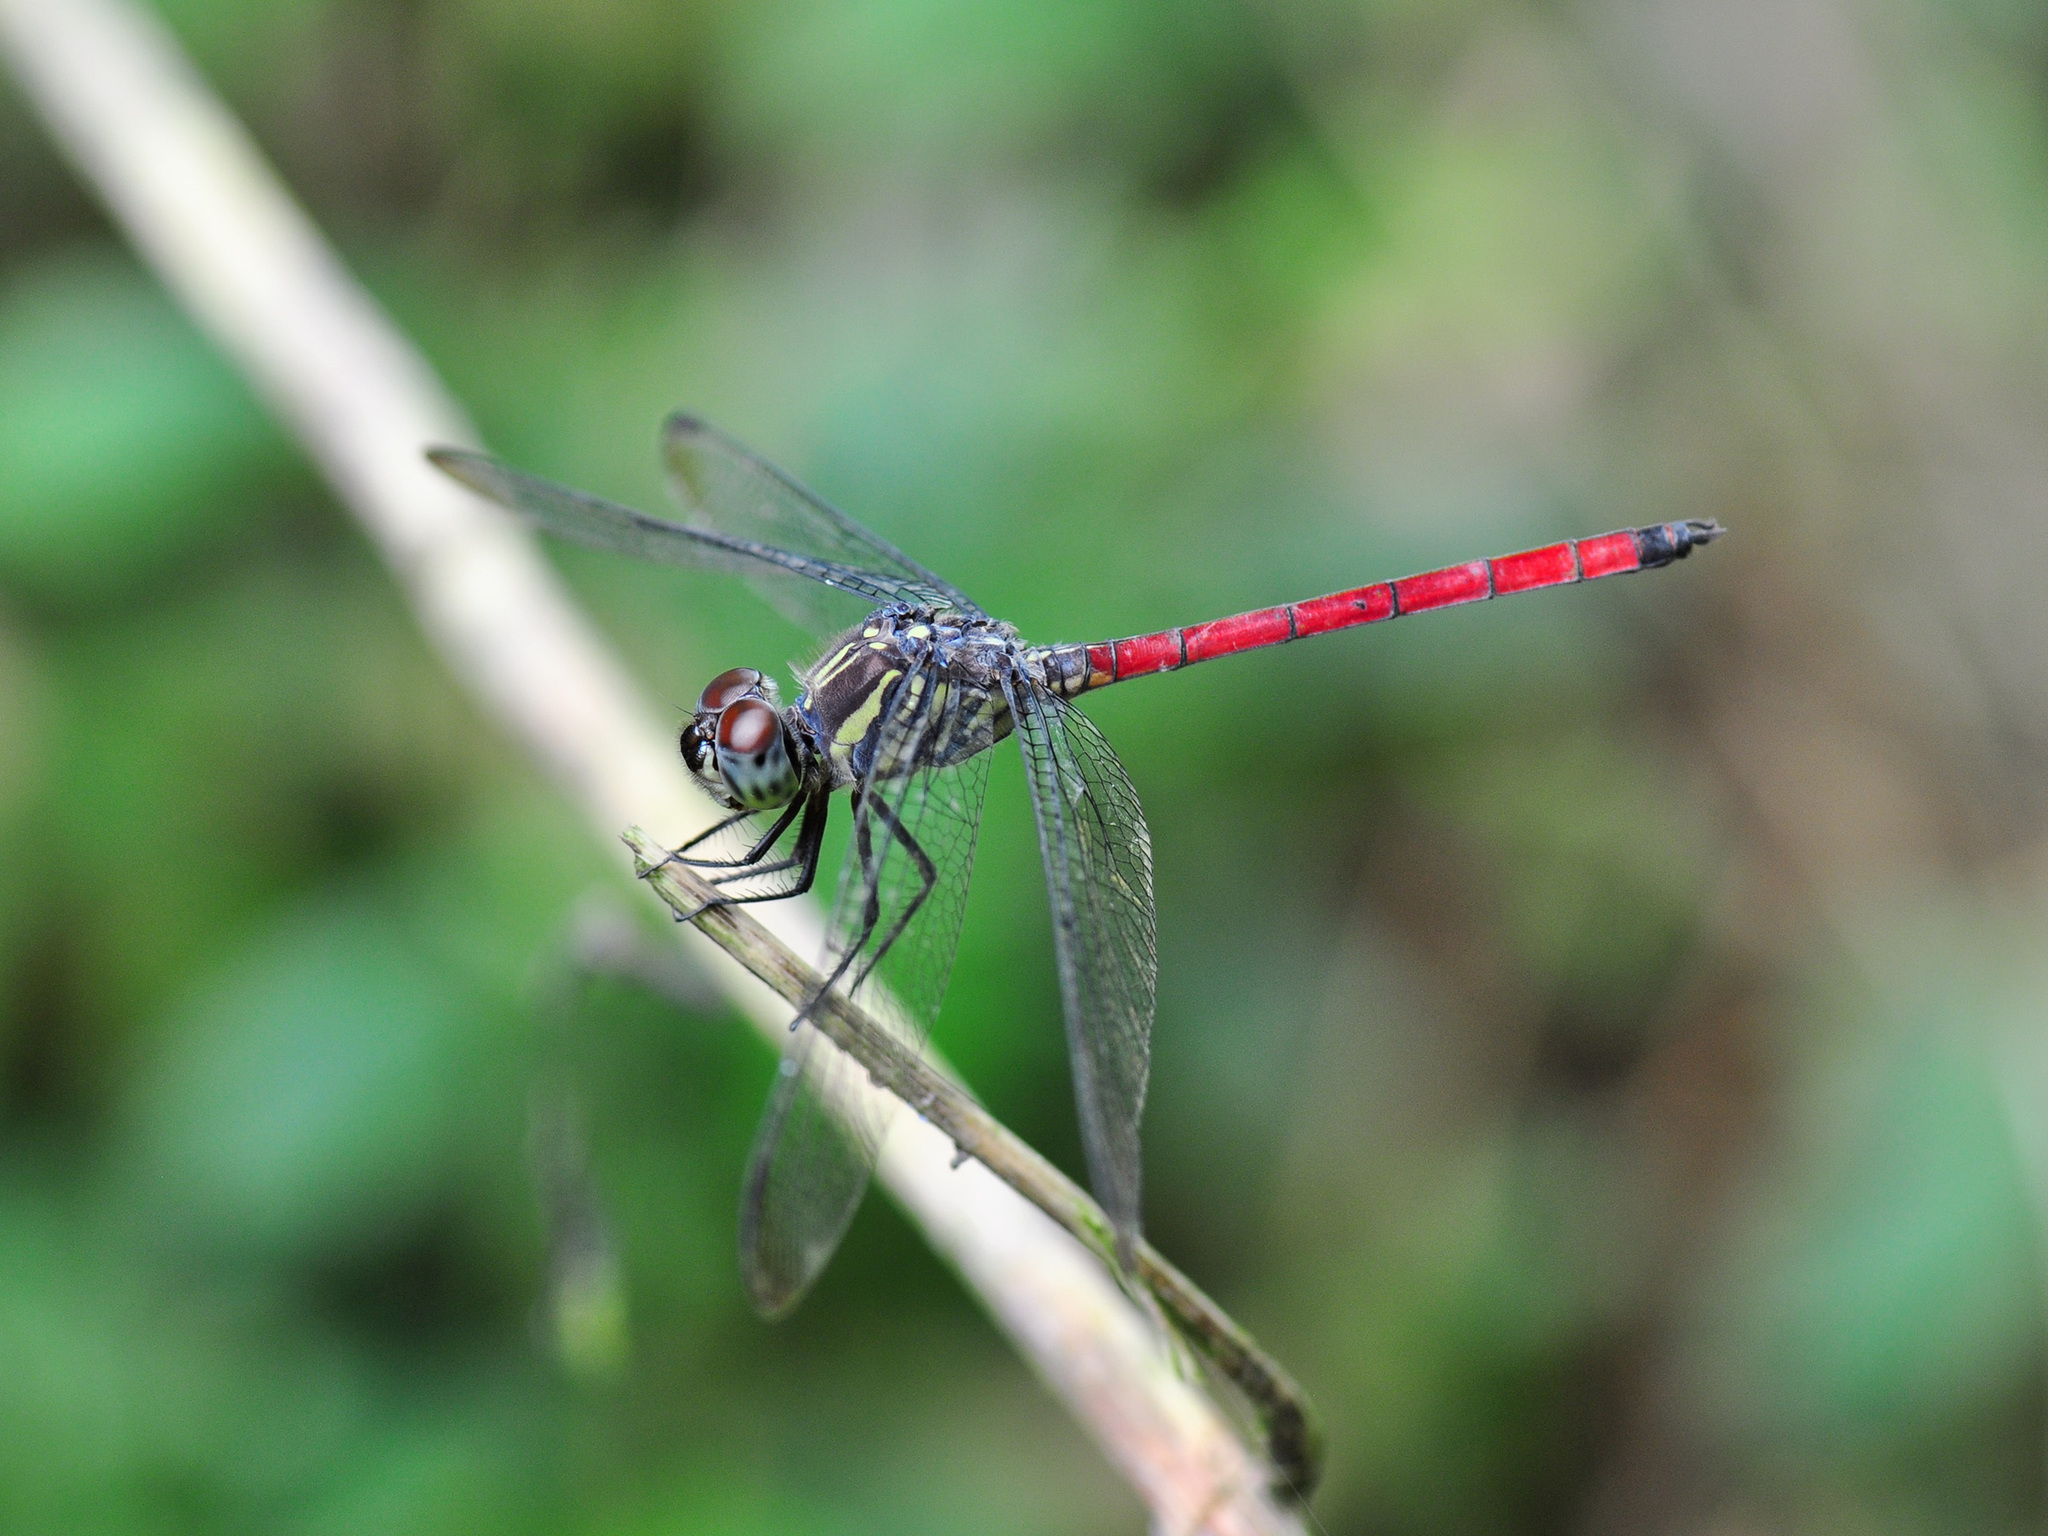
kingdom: Animalia
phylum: Arthropoda
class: Insecta
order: Odonata
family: Libellulidae
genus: Lathrecista
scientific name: Lathrecista asiatica
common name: Scarlet grenadier
